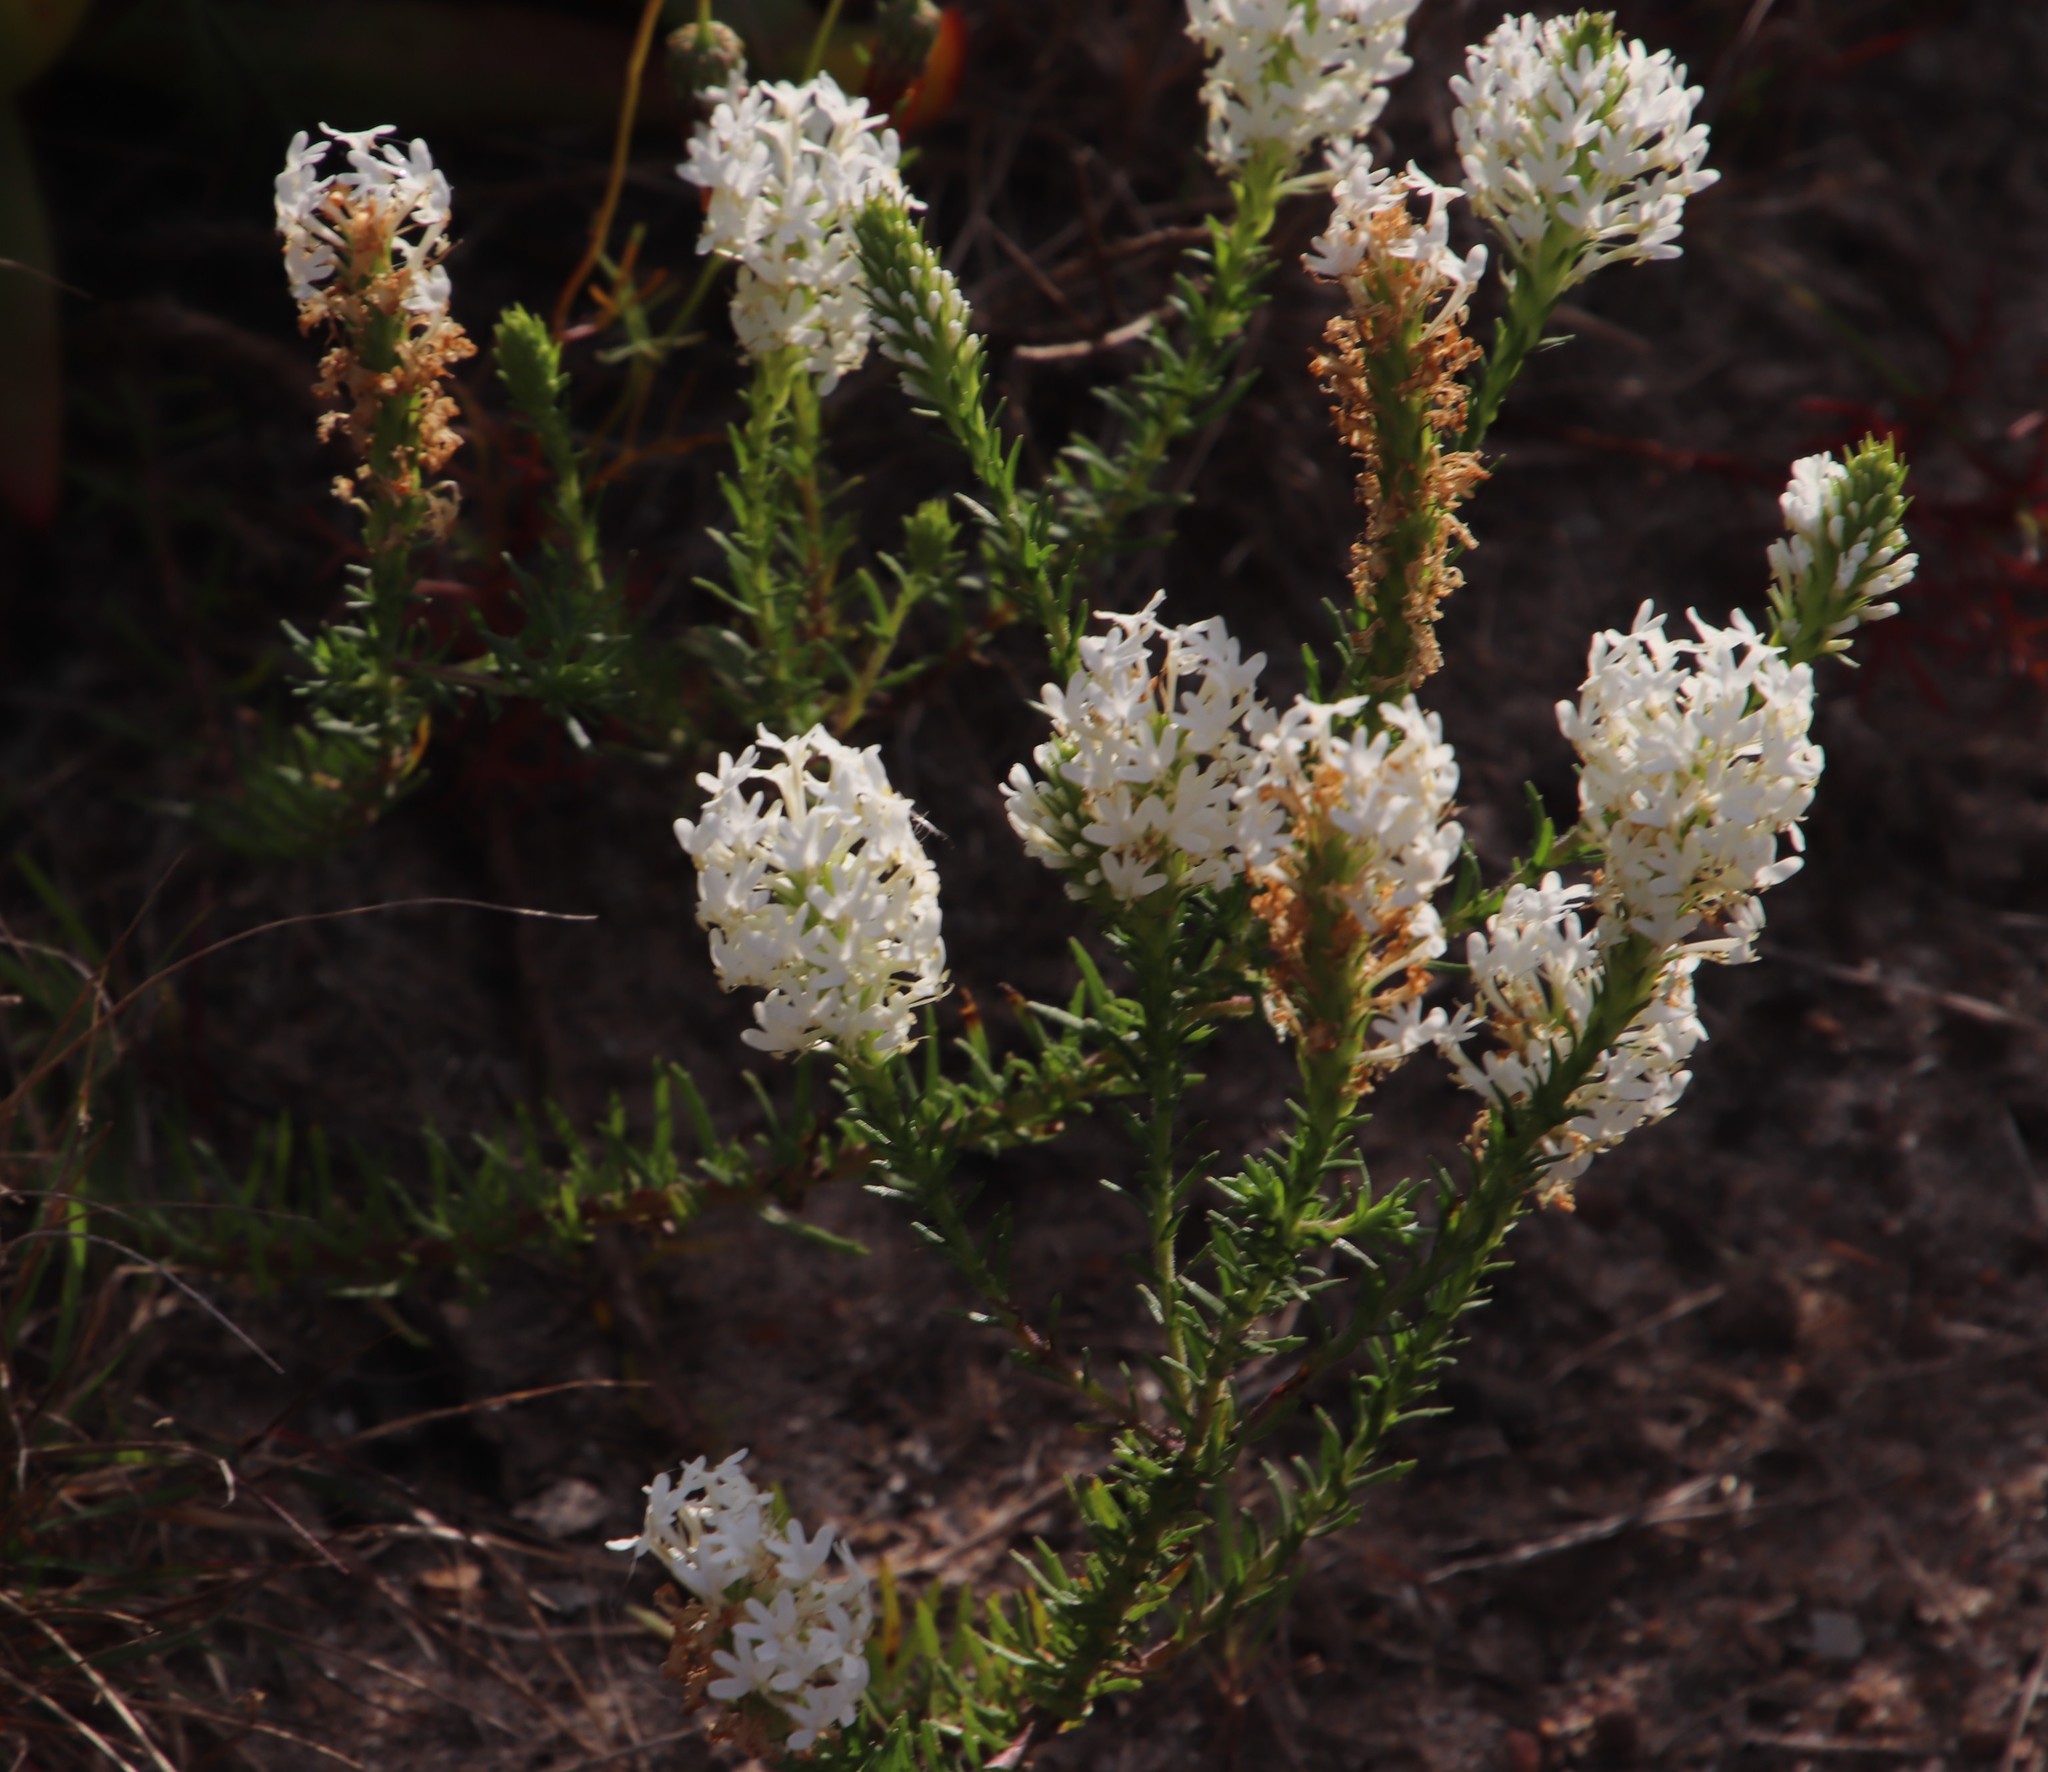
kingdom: Plantae
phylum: Tracheophyta
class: Magnoliopsida
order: Lamiales
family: Scrophulariaceae
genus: Dischisma
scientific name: Dischisma ciliatum
